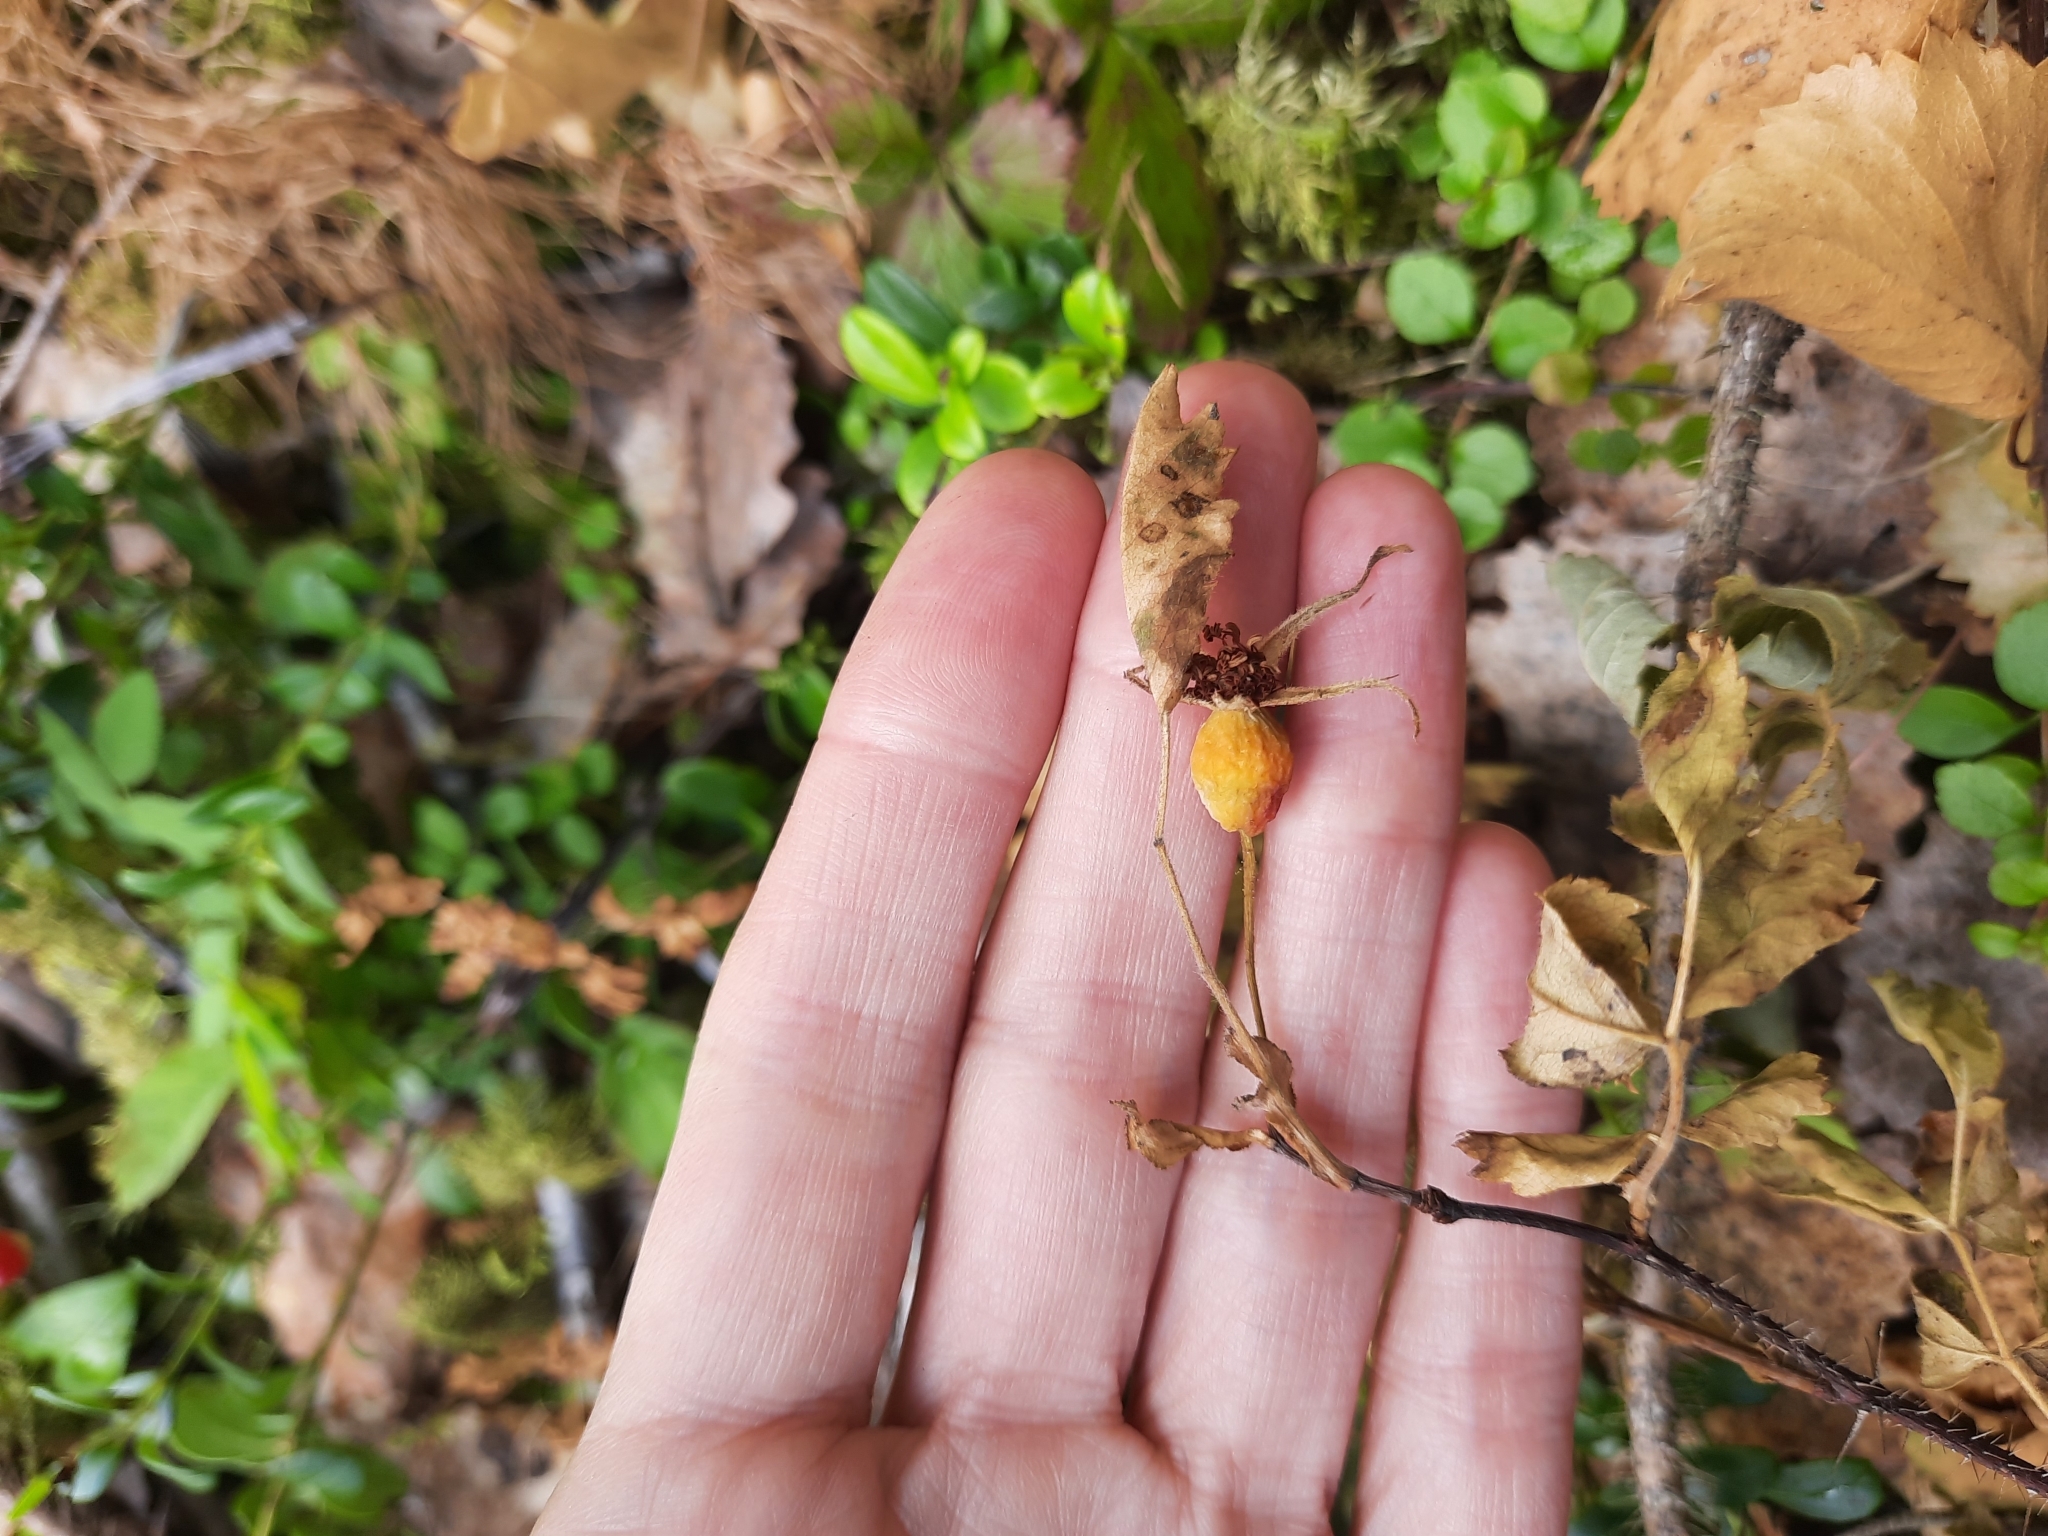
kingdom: Plantae
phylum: Tracheophyta
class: Magnoliopsida
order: Rosales
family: Rosaceae
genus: Rosa
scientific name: Rosa acicularis
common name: Prickly rose
